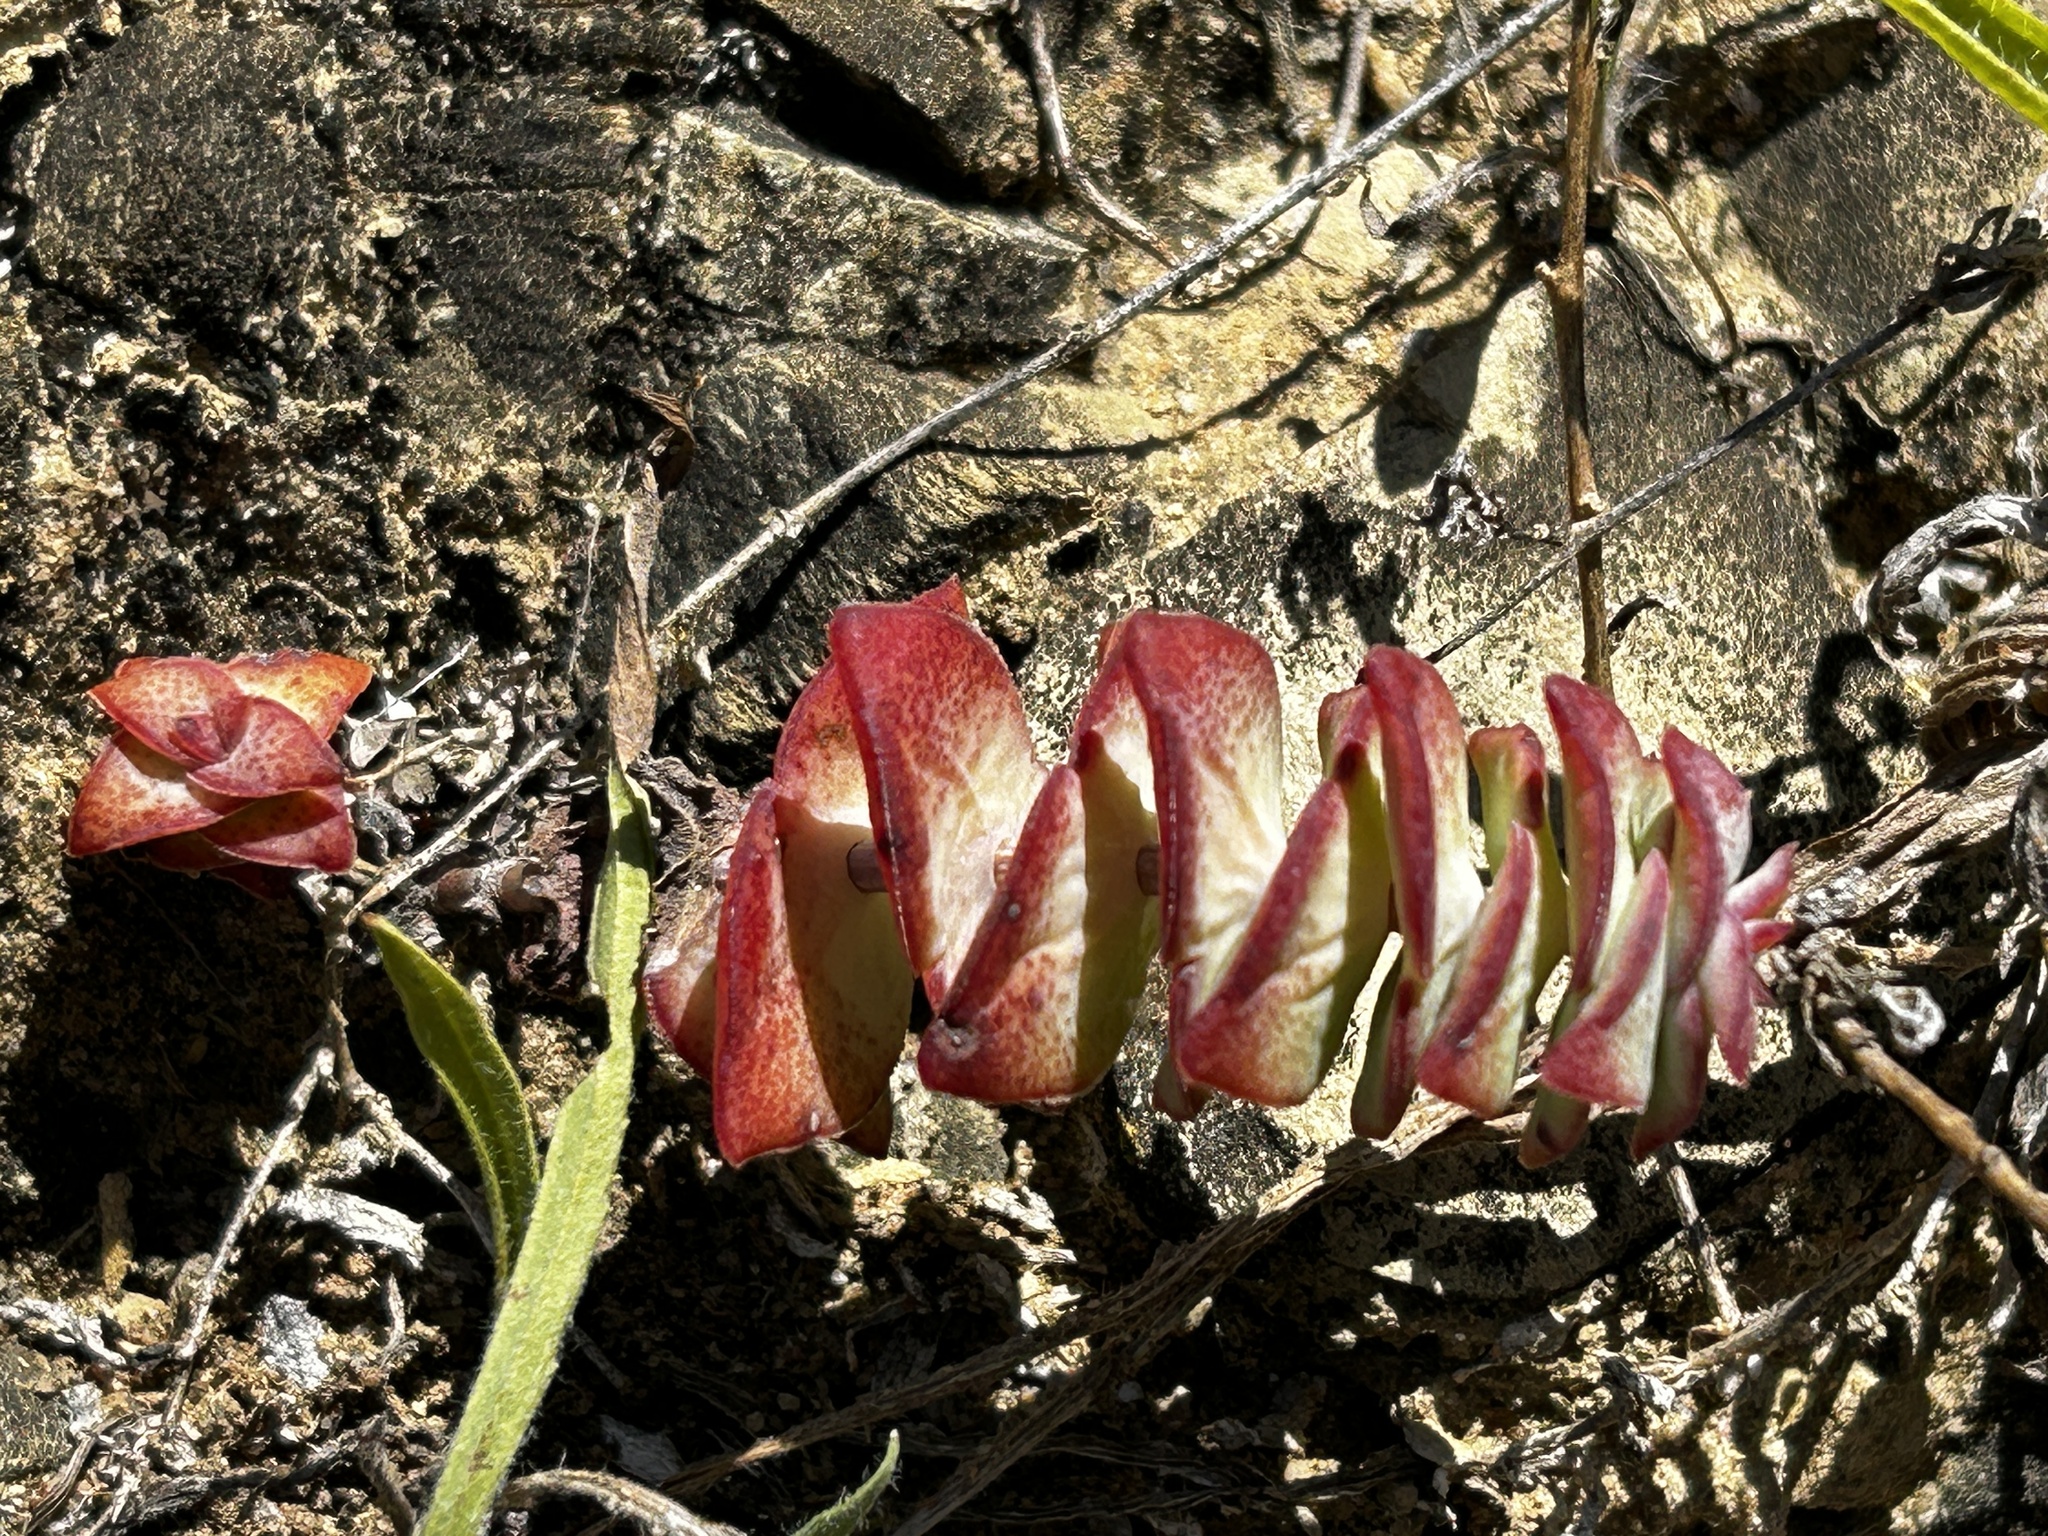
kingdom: Plantae
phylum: Tracheophyta
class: Magnoliopsida
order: Saxifragales
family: Crassulaceae
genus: Crassula
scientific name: Crassula perforata
